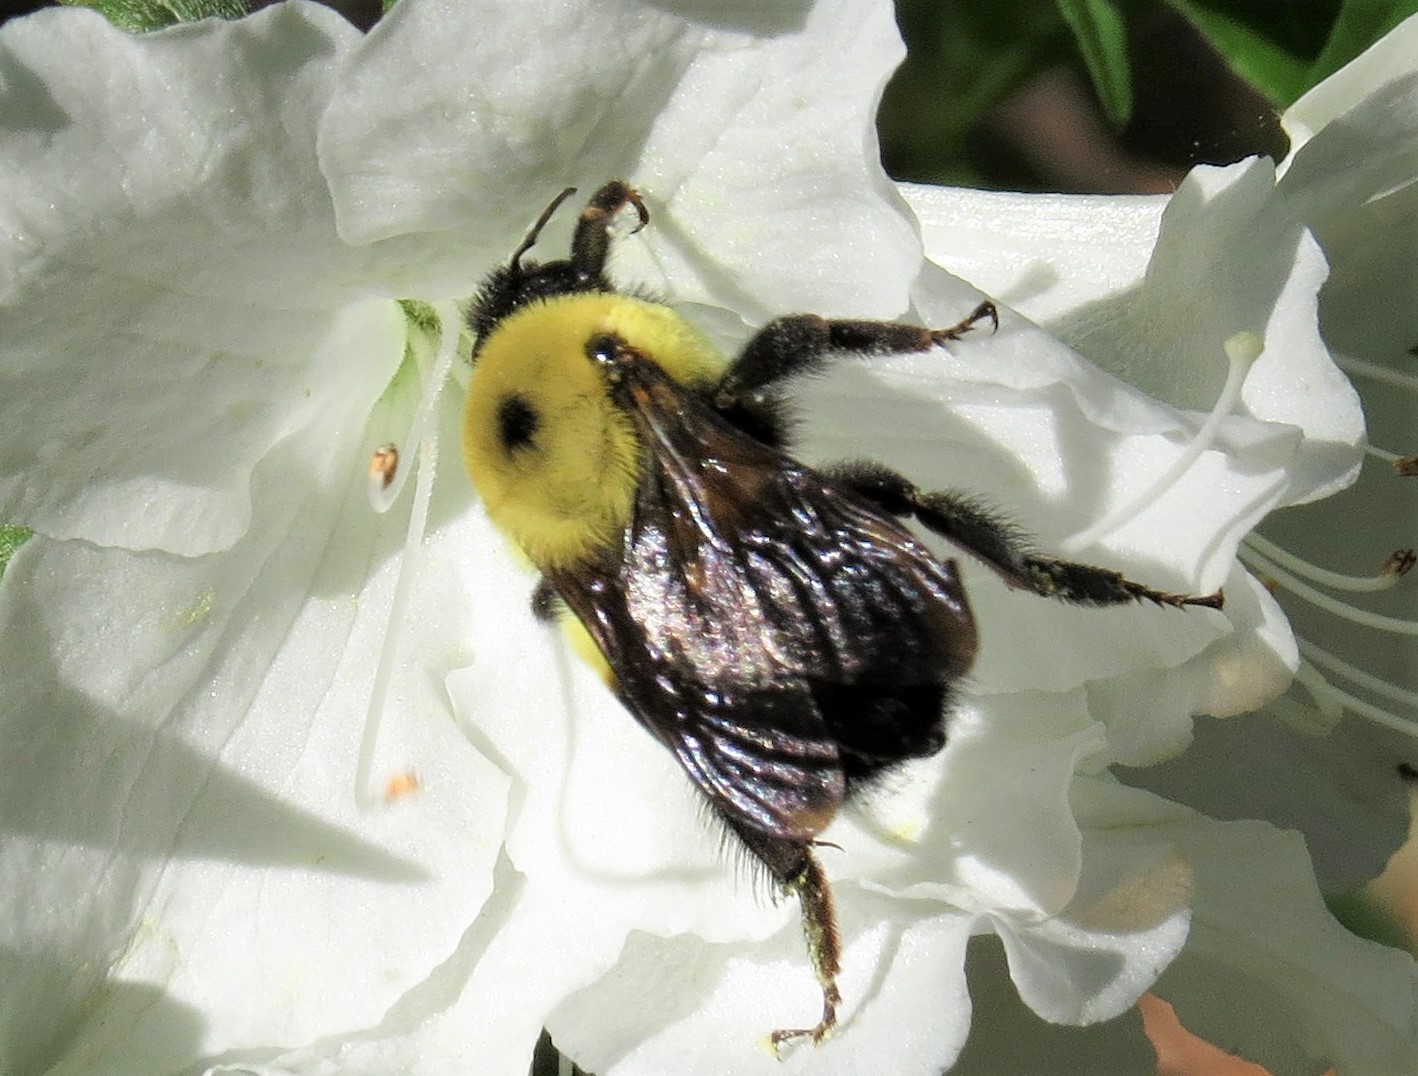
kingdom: Animalia
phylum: Arthropoda
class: Insecta
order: Hymenoptera
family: Apidae
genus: Bombus
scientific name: Bombus griseocollis
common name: Brown-belted bumble bee
